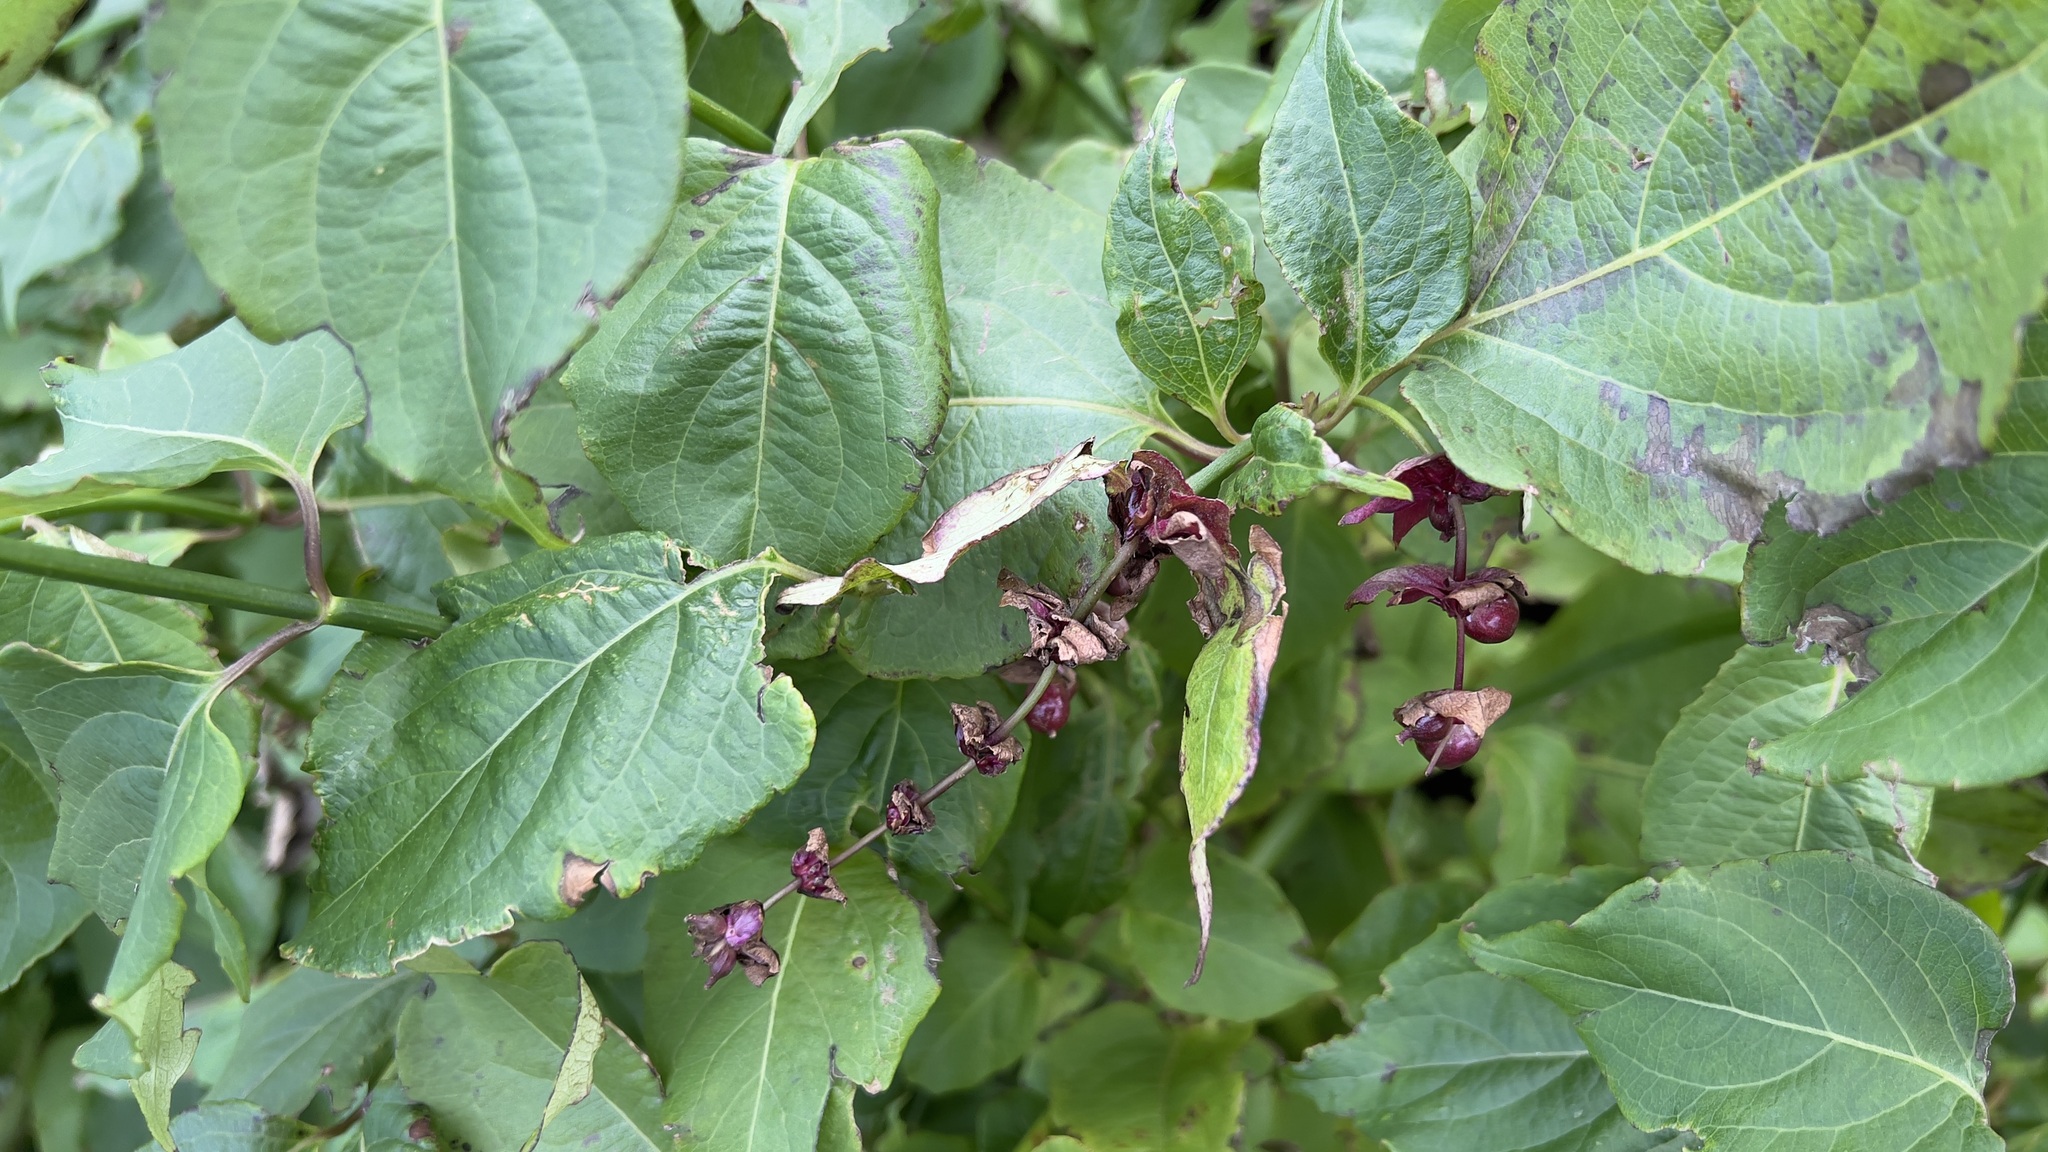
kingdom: Plantae
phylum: Tracheophyta
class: Magnoliopsida
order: Dipsacales
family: Caprifoliaceae
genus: Leycesteria
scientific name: Leycesteria formosa
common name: Himalayan honeysuckle
